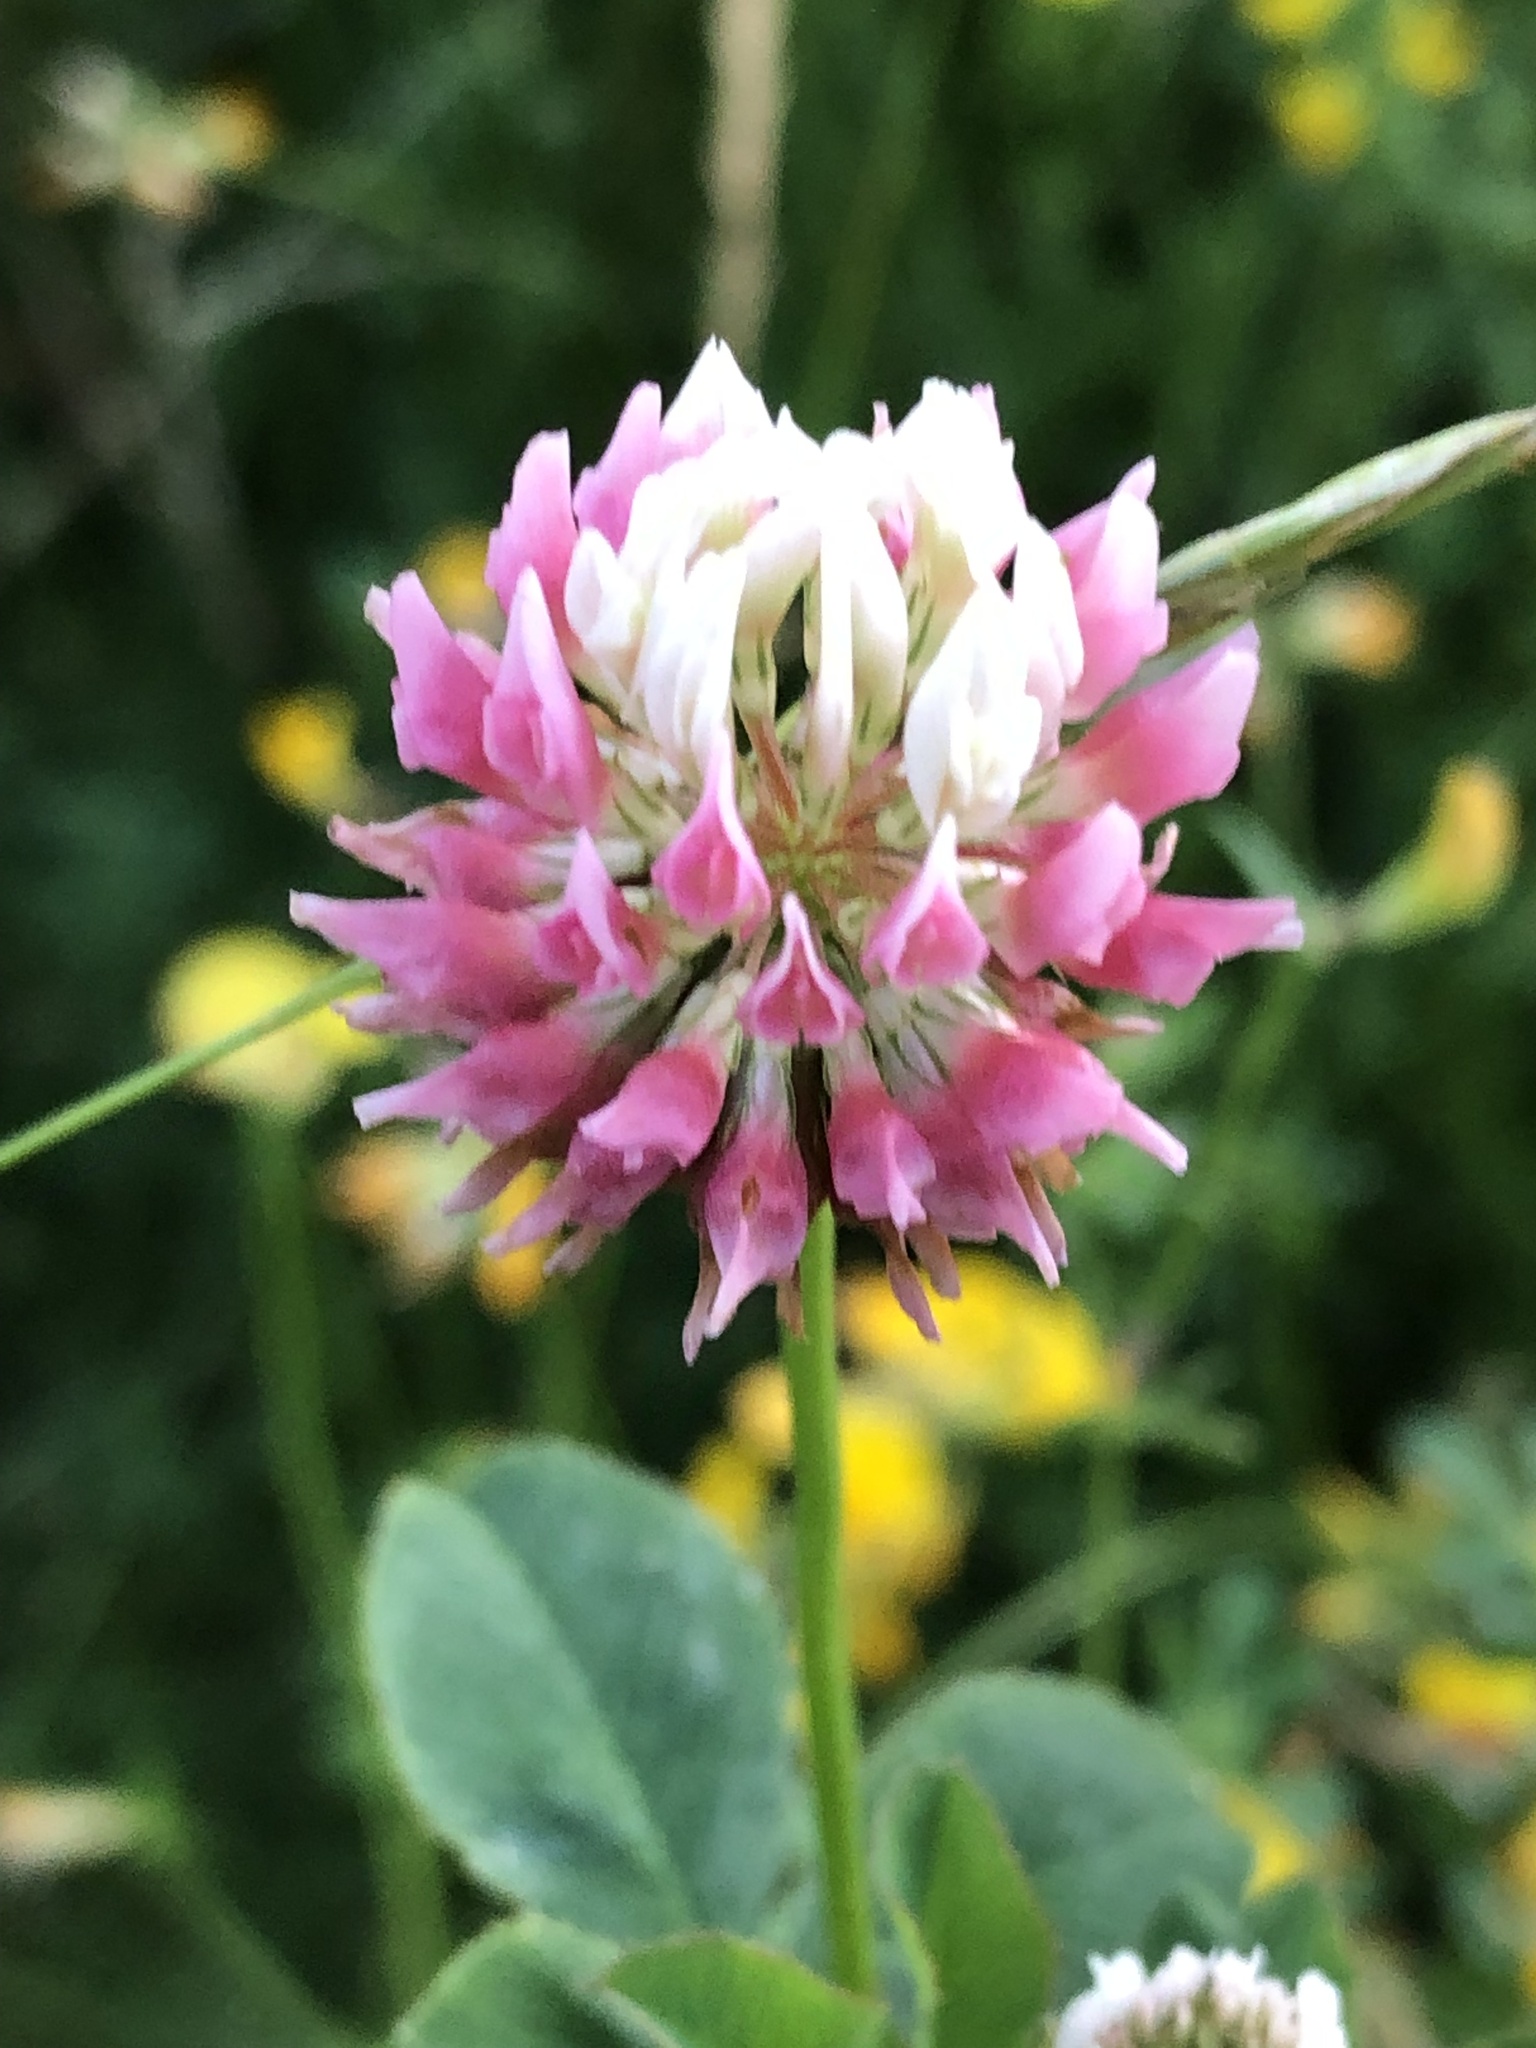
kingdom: Plantae
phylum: Tracheophyta
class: Magnoliopsida
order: Fabales
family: Fabaceae
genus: Trifolium
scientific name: Trifolium hybridum
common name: Alsike clover
